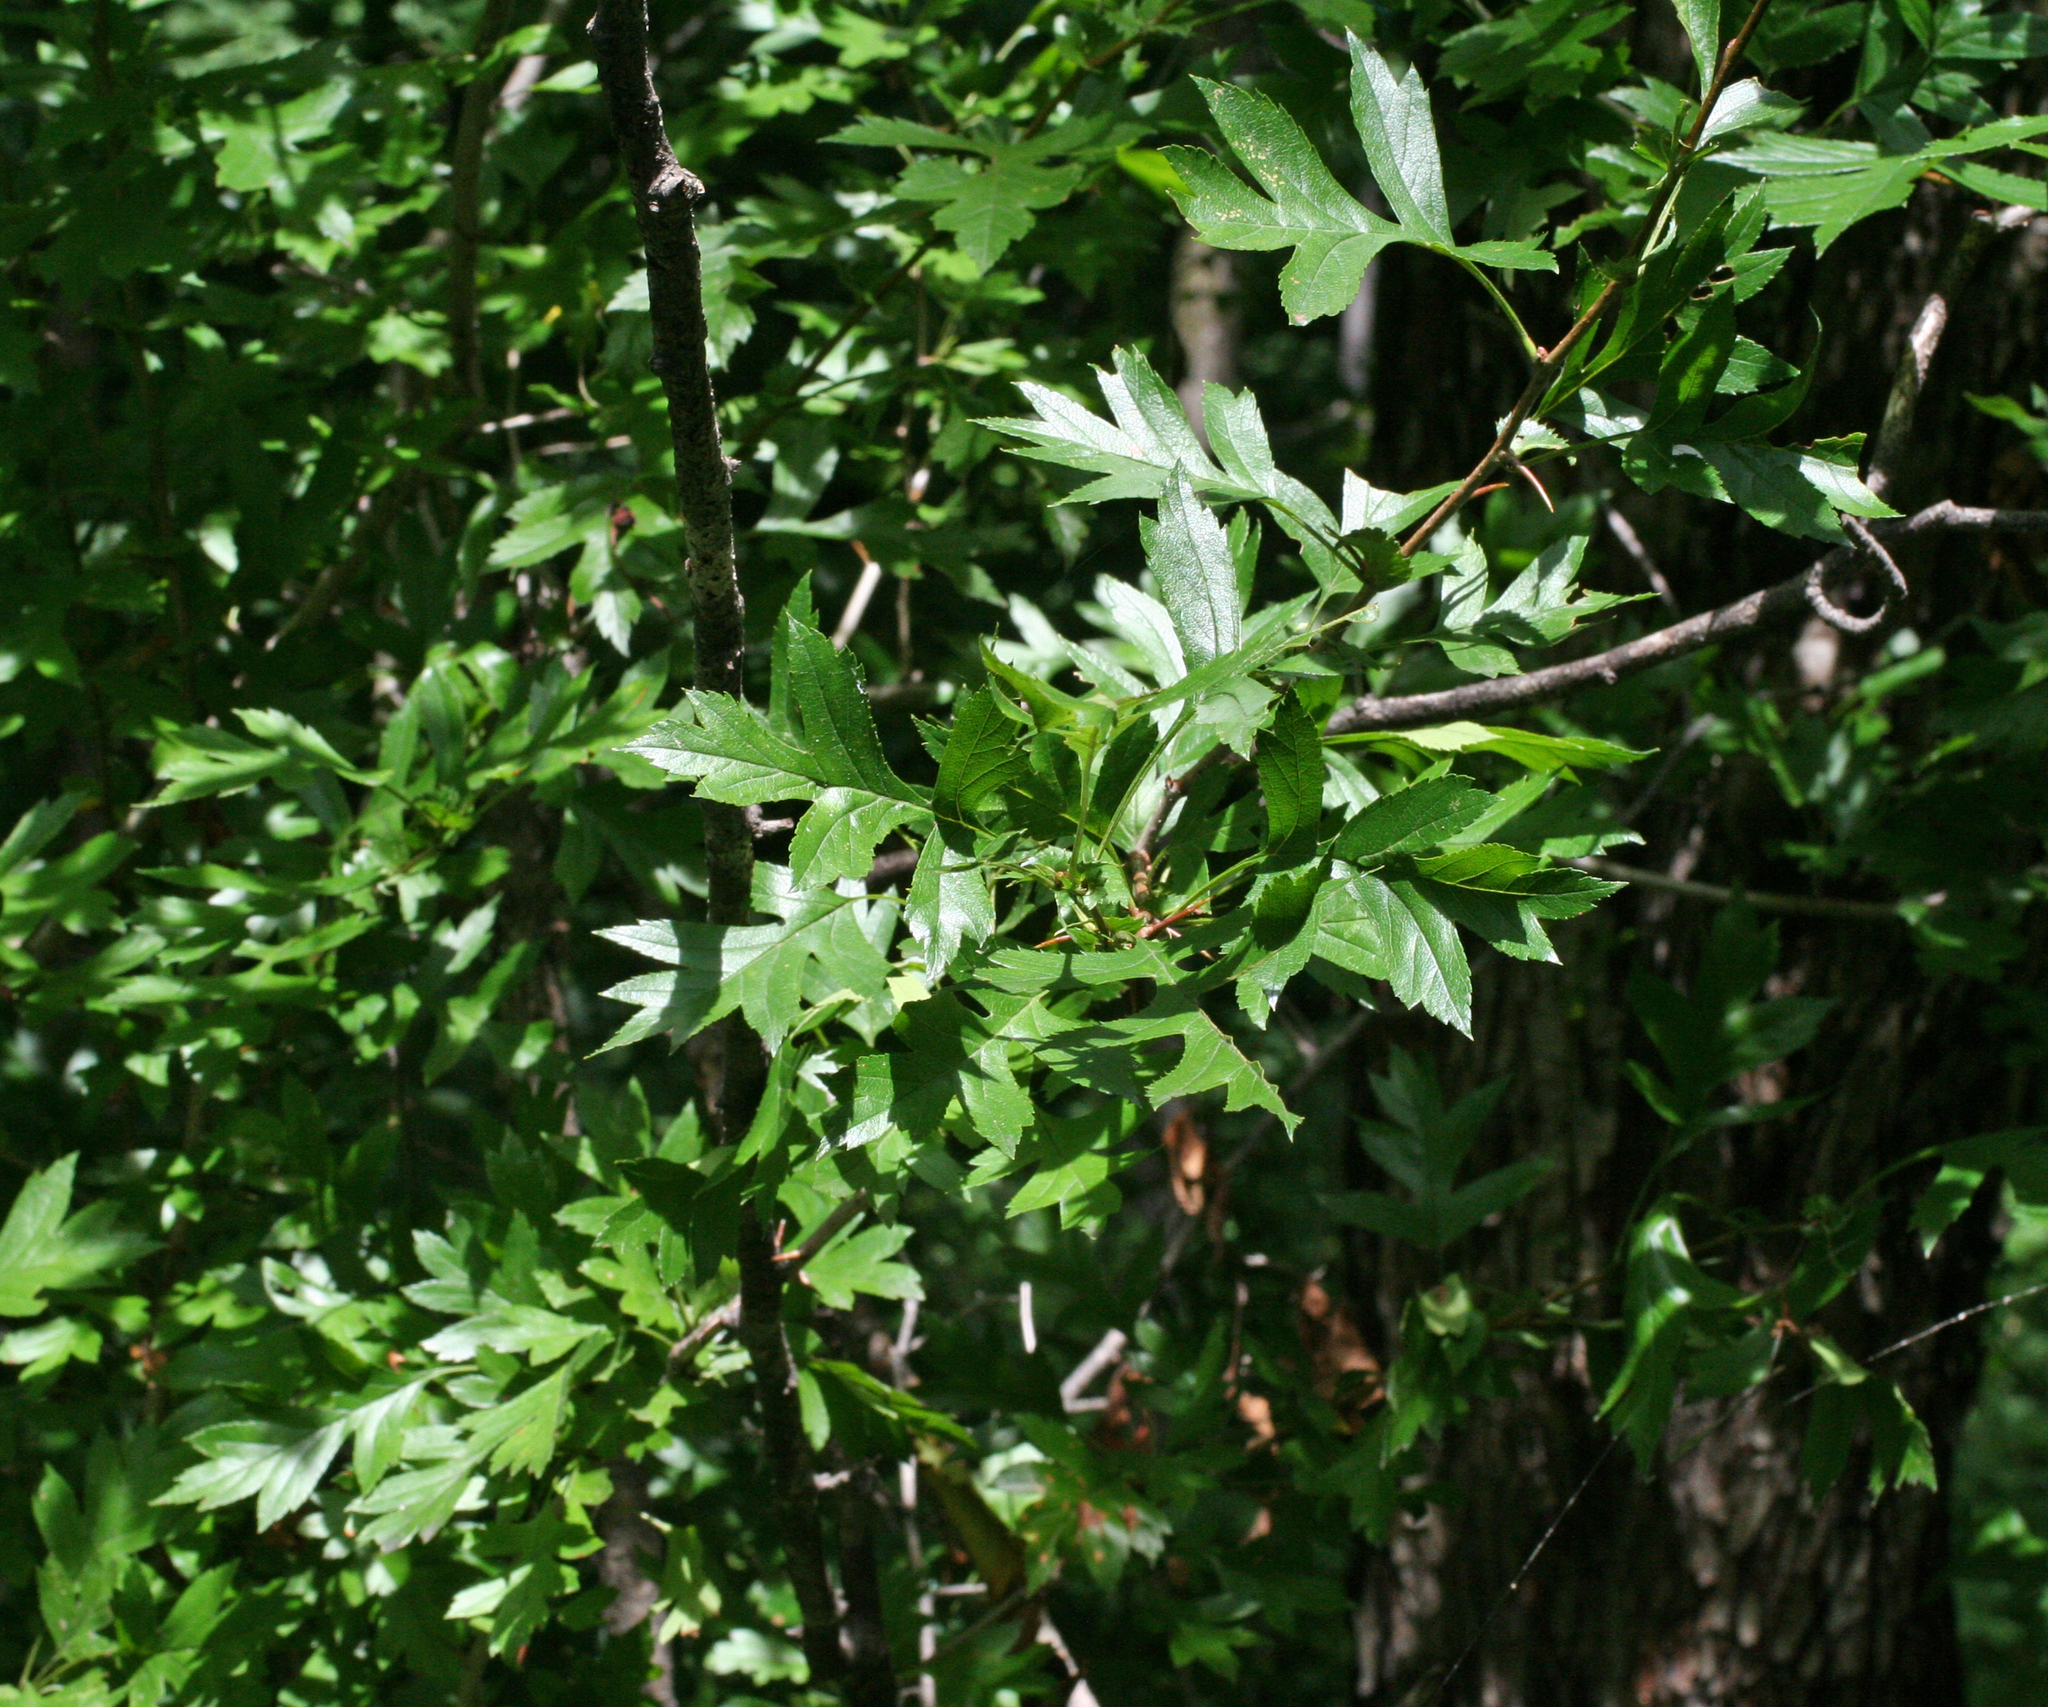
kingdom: Plantae
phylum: Tracheophyta
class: Magnoliopsida
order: Rosales
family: Rosaceae
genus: Crataegus
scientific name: Crataegus pinnatifida
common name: Chinese haw
